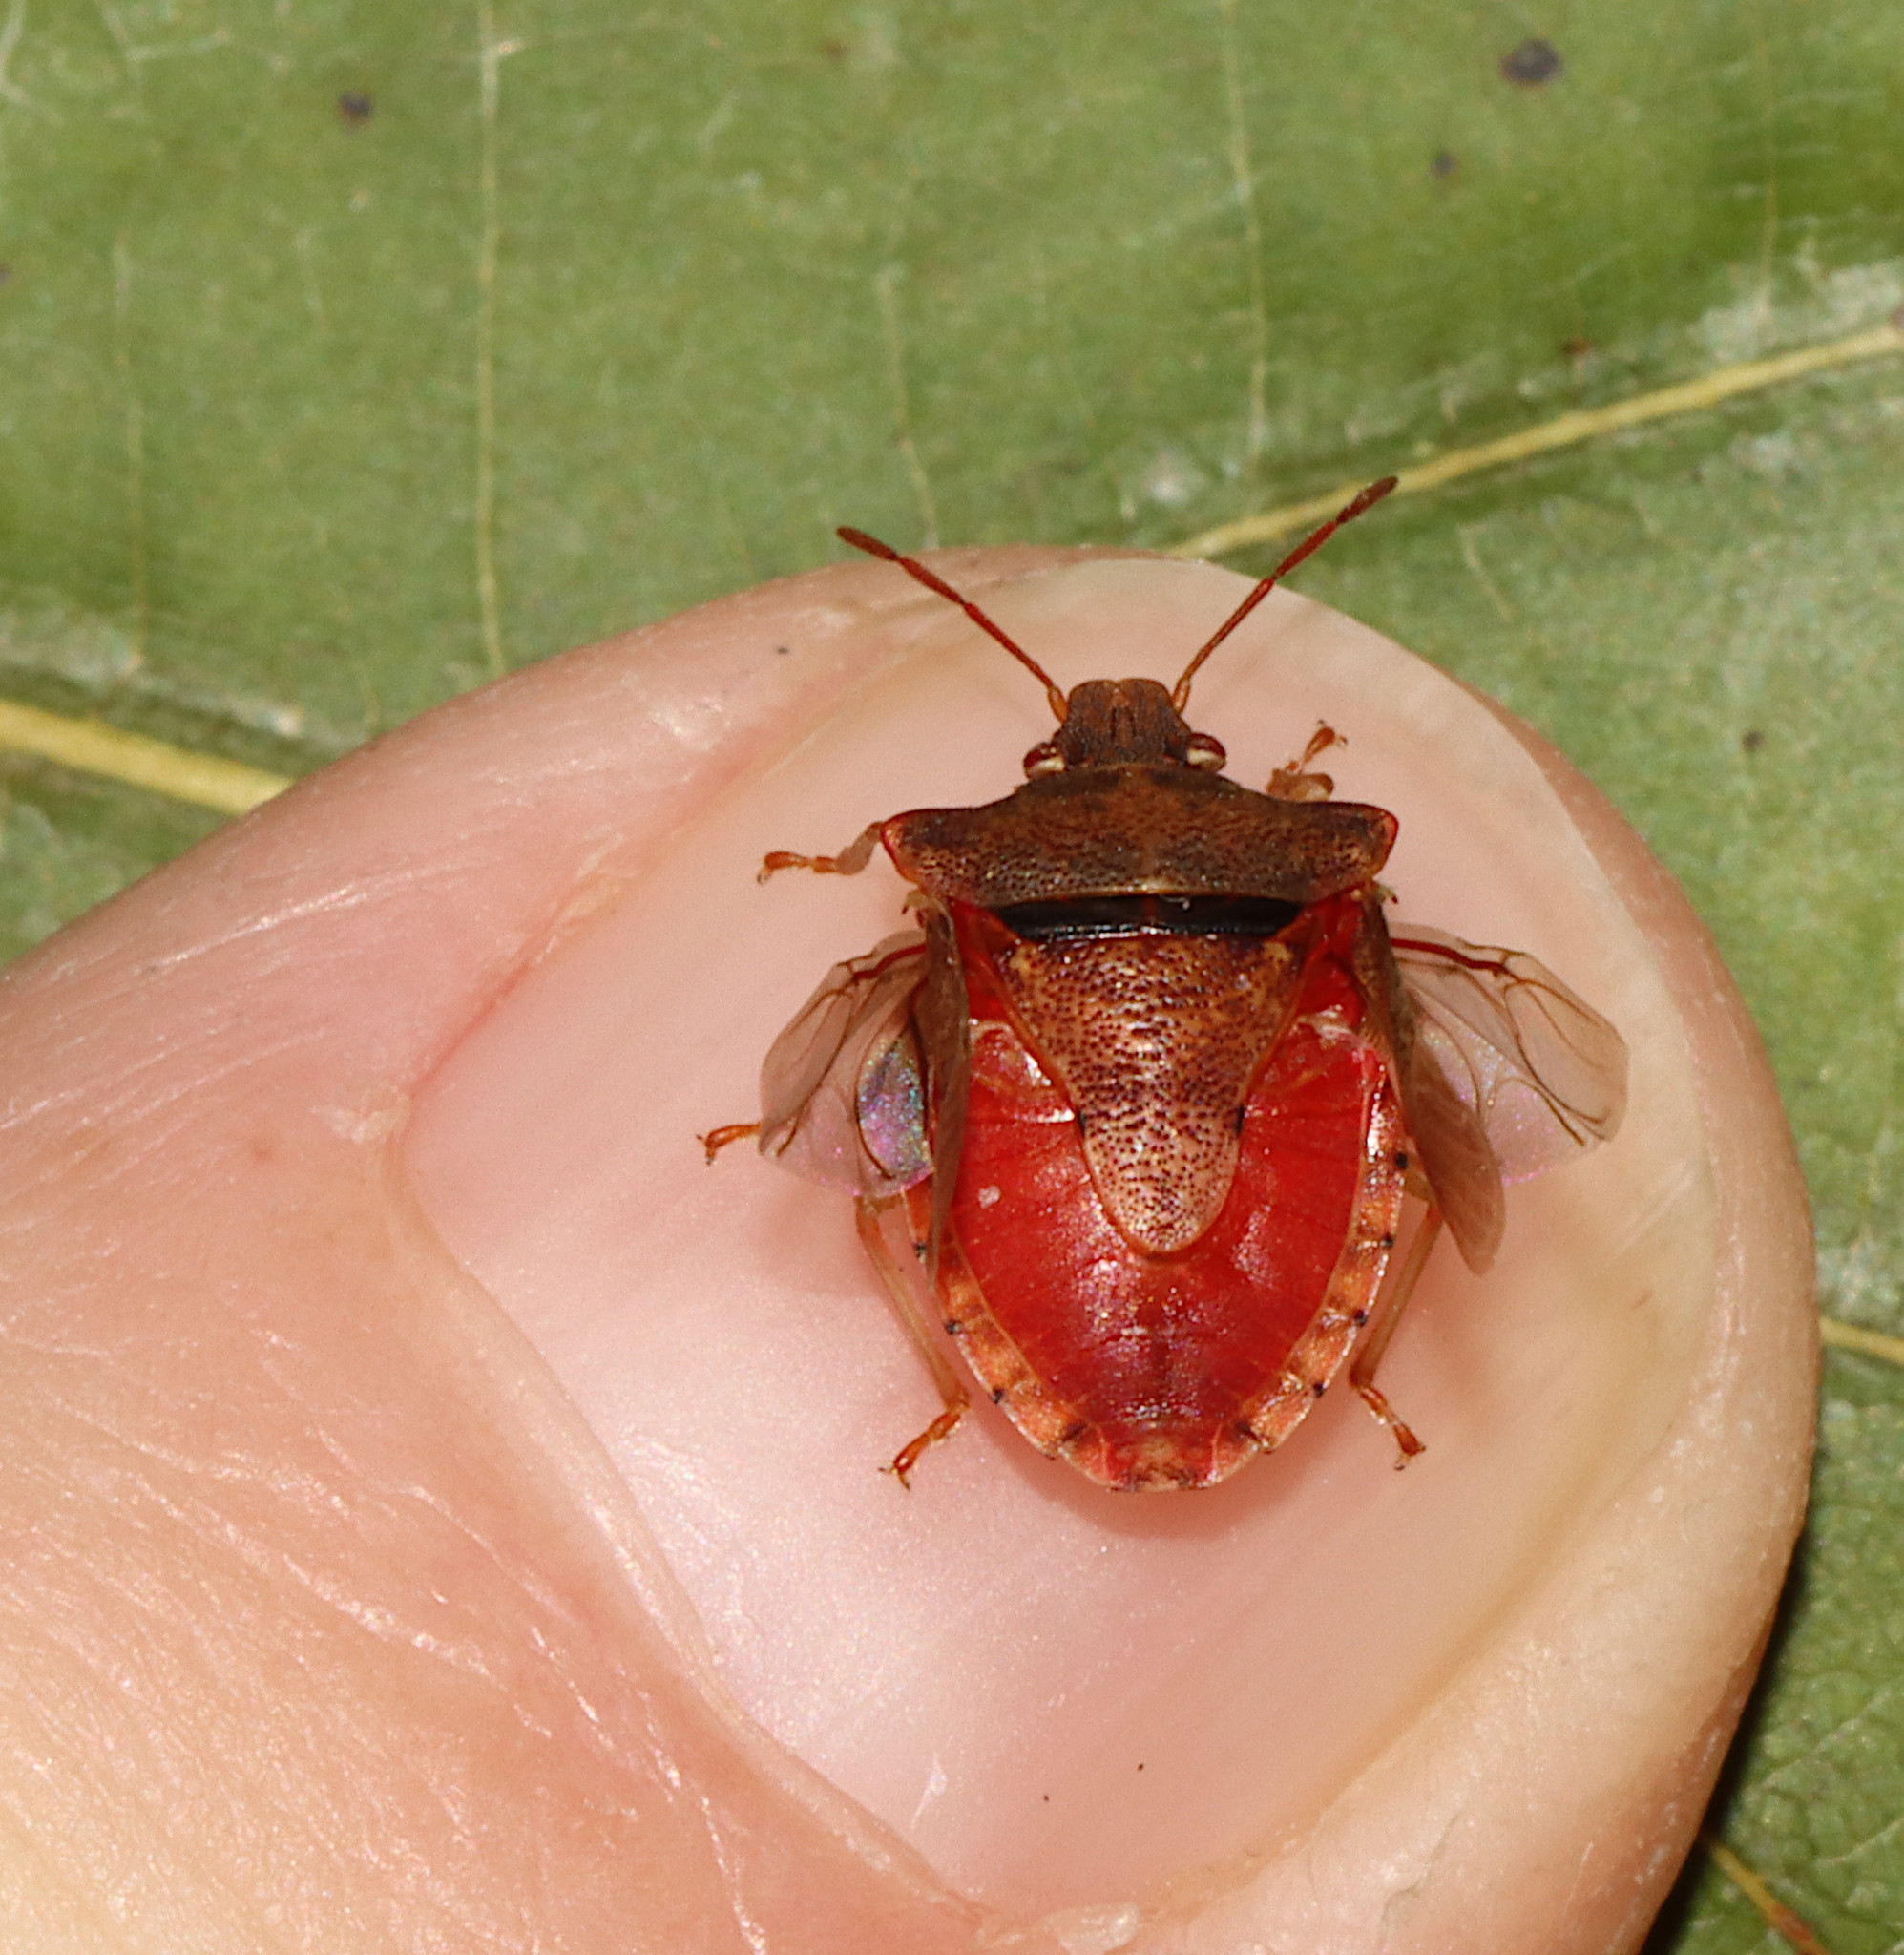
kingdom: Animalia
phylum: Arthropoda
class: Insecta
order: Hemiptera
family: Pentatomidae
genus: Dendrocoris
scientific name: Dendrocoris humeralis
